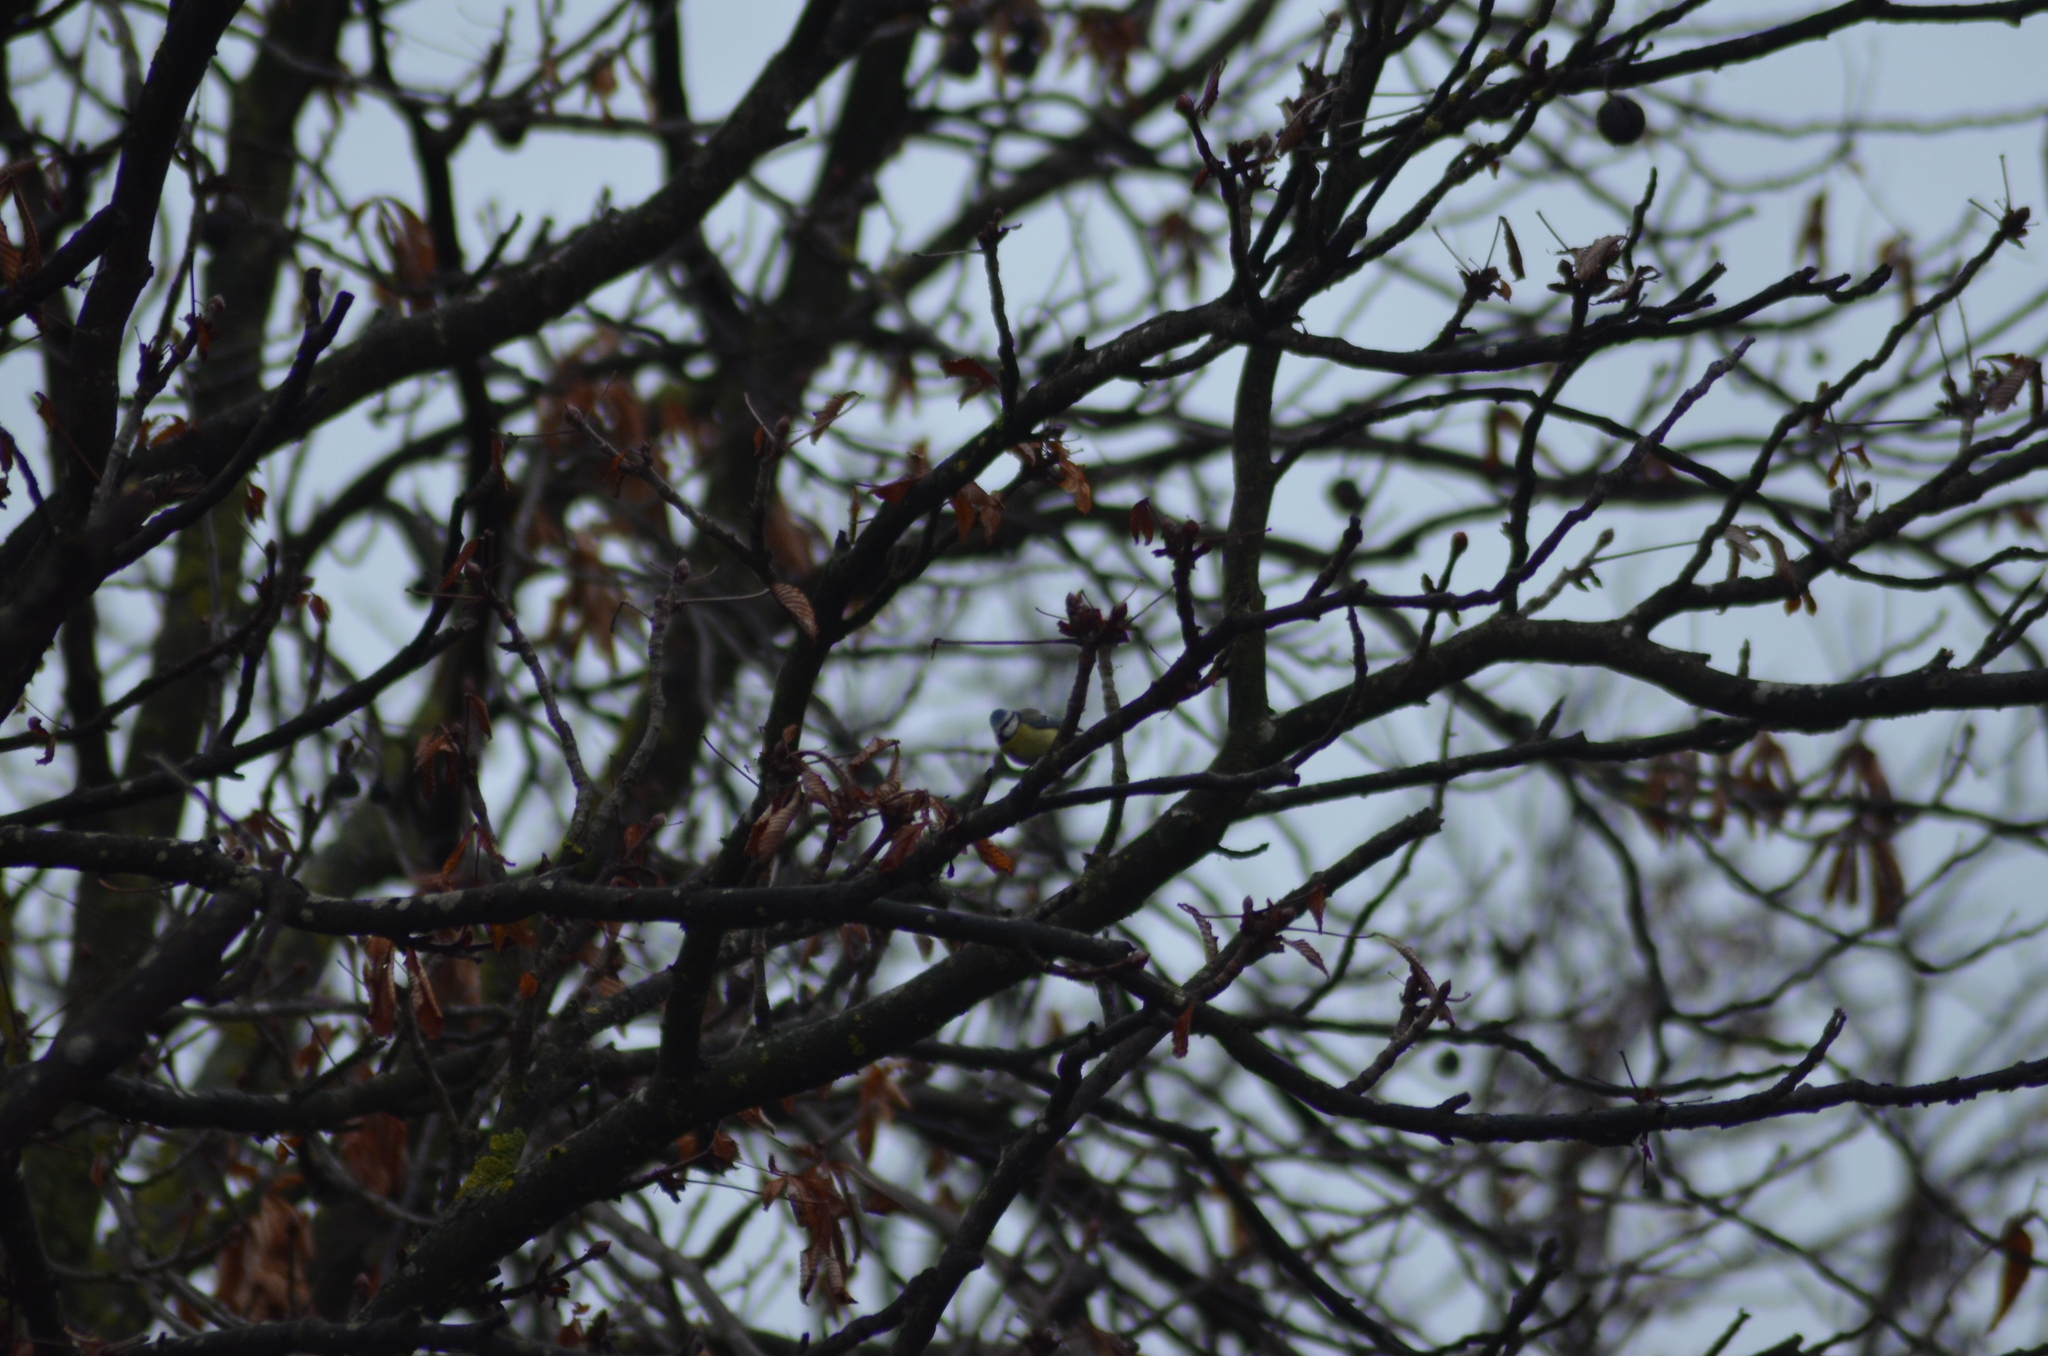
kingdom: Animalia
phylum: Chordata
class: Aves
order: Passeriformes
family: Paridae
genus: Cyanistes
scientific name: Cyanistes caeruleus
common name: Eurasian blue tit
